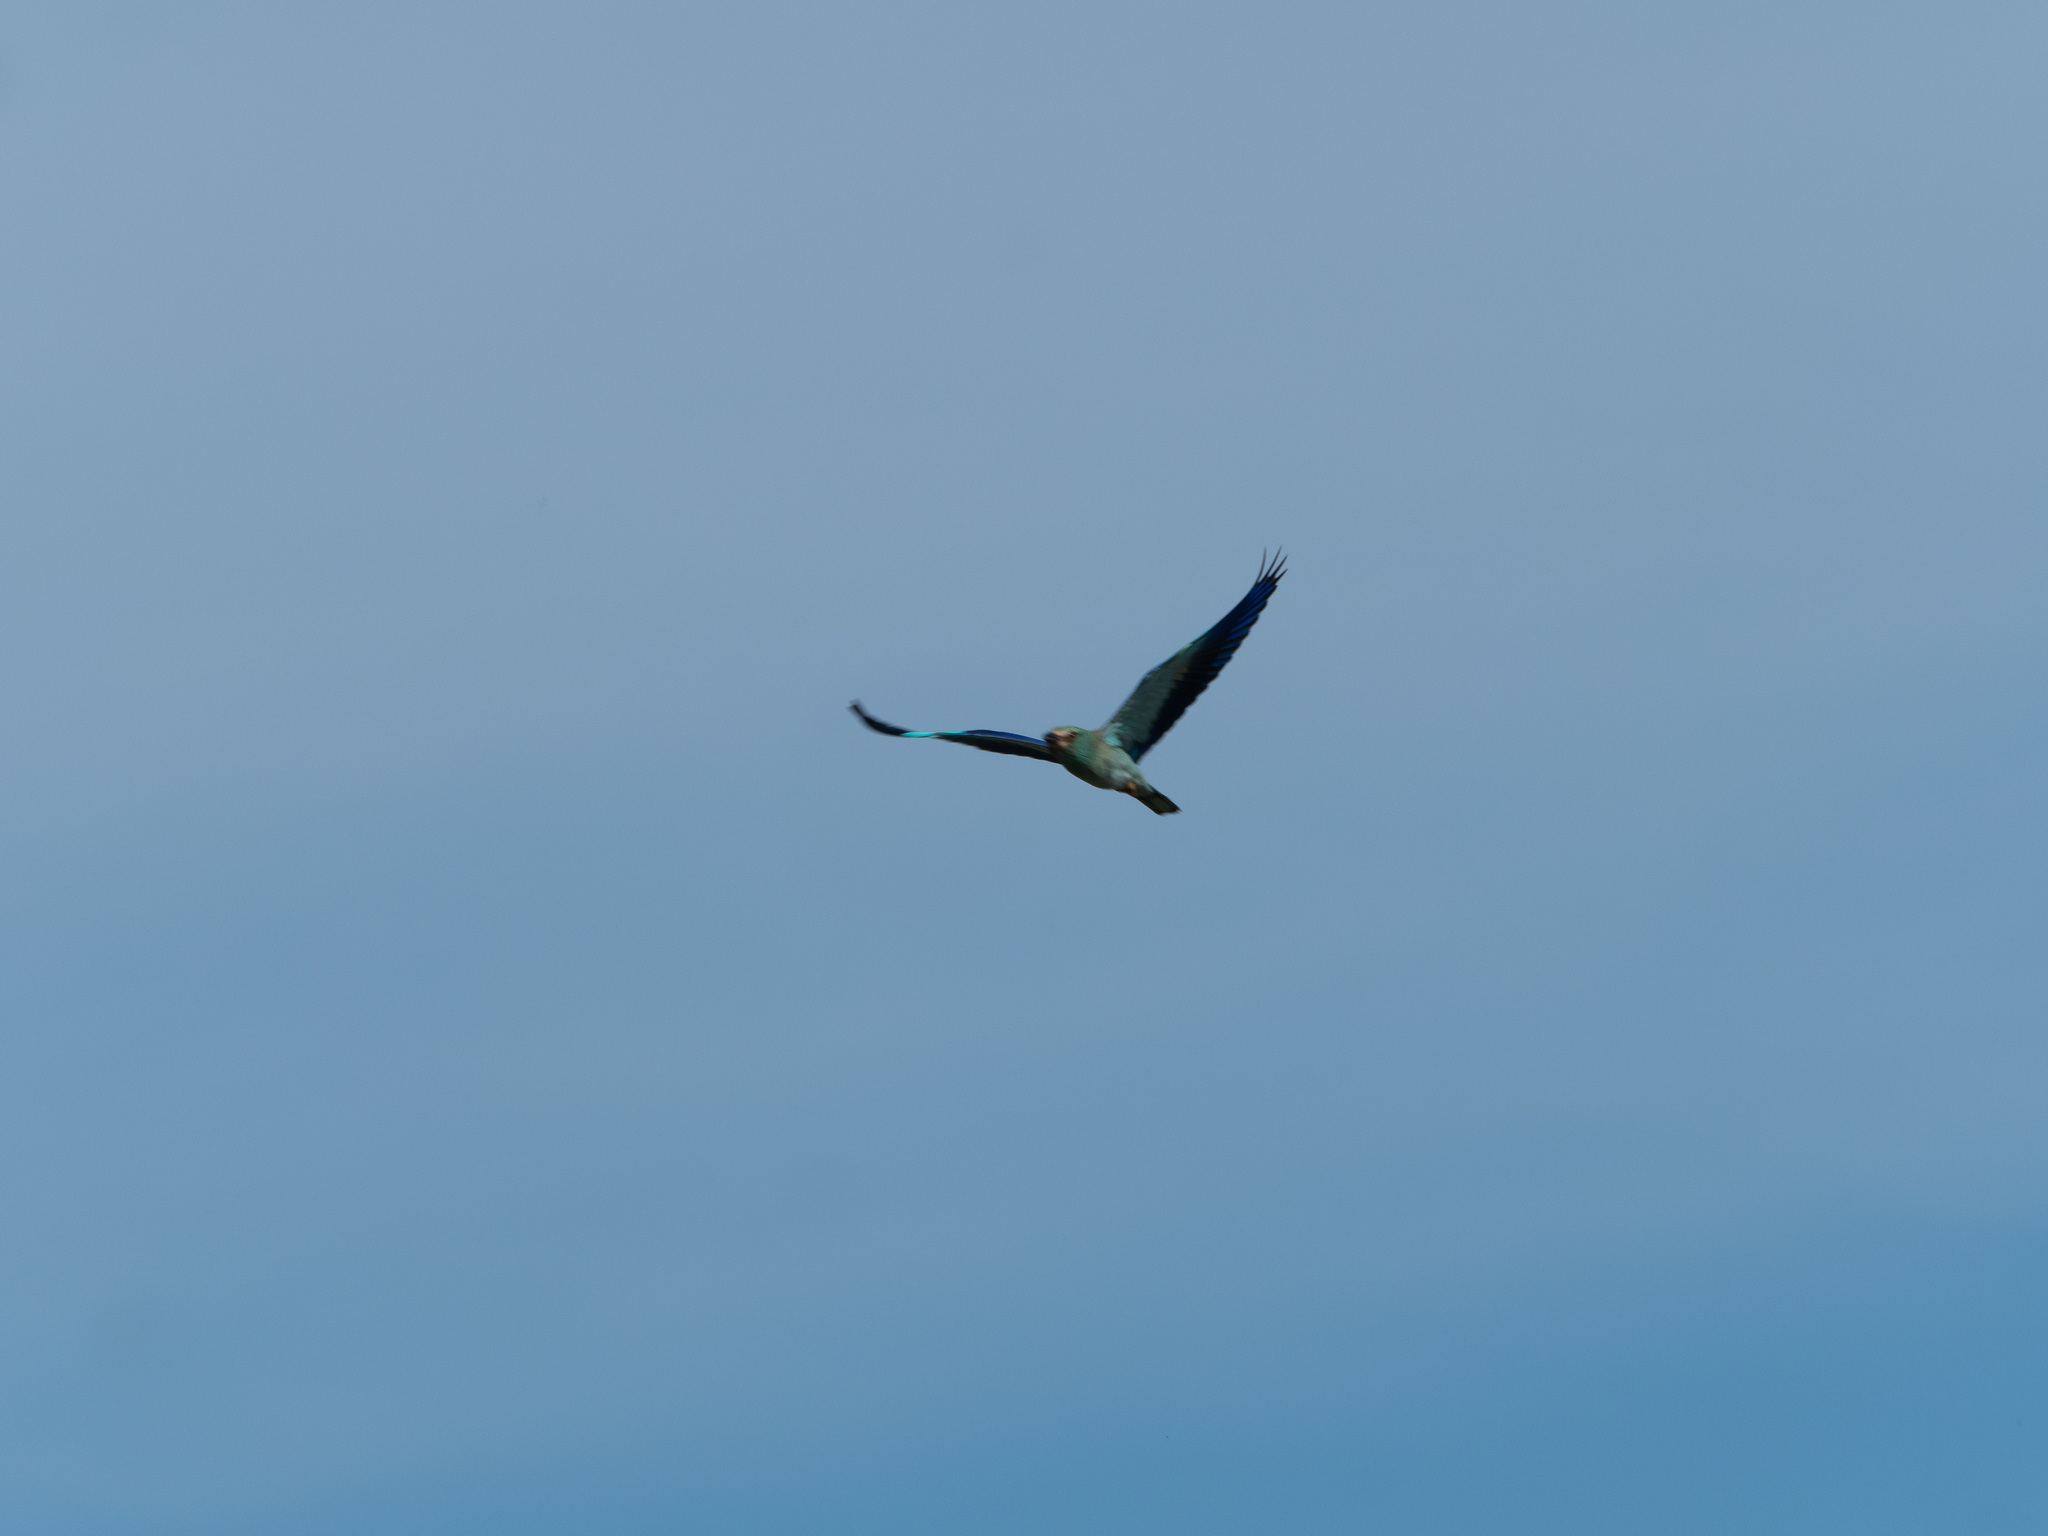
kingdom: Animalia
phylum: Chordata
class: Aves
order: Coraciiformes
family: Coraciidae
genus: Coracias
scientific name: Coracias garrulus
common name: European roller
